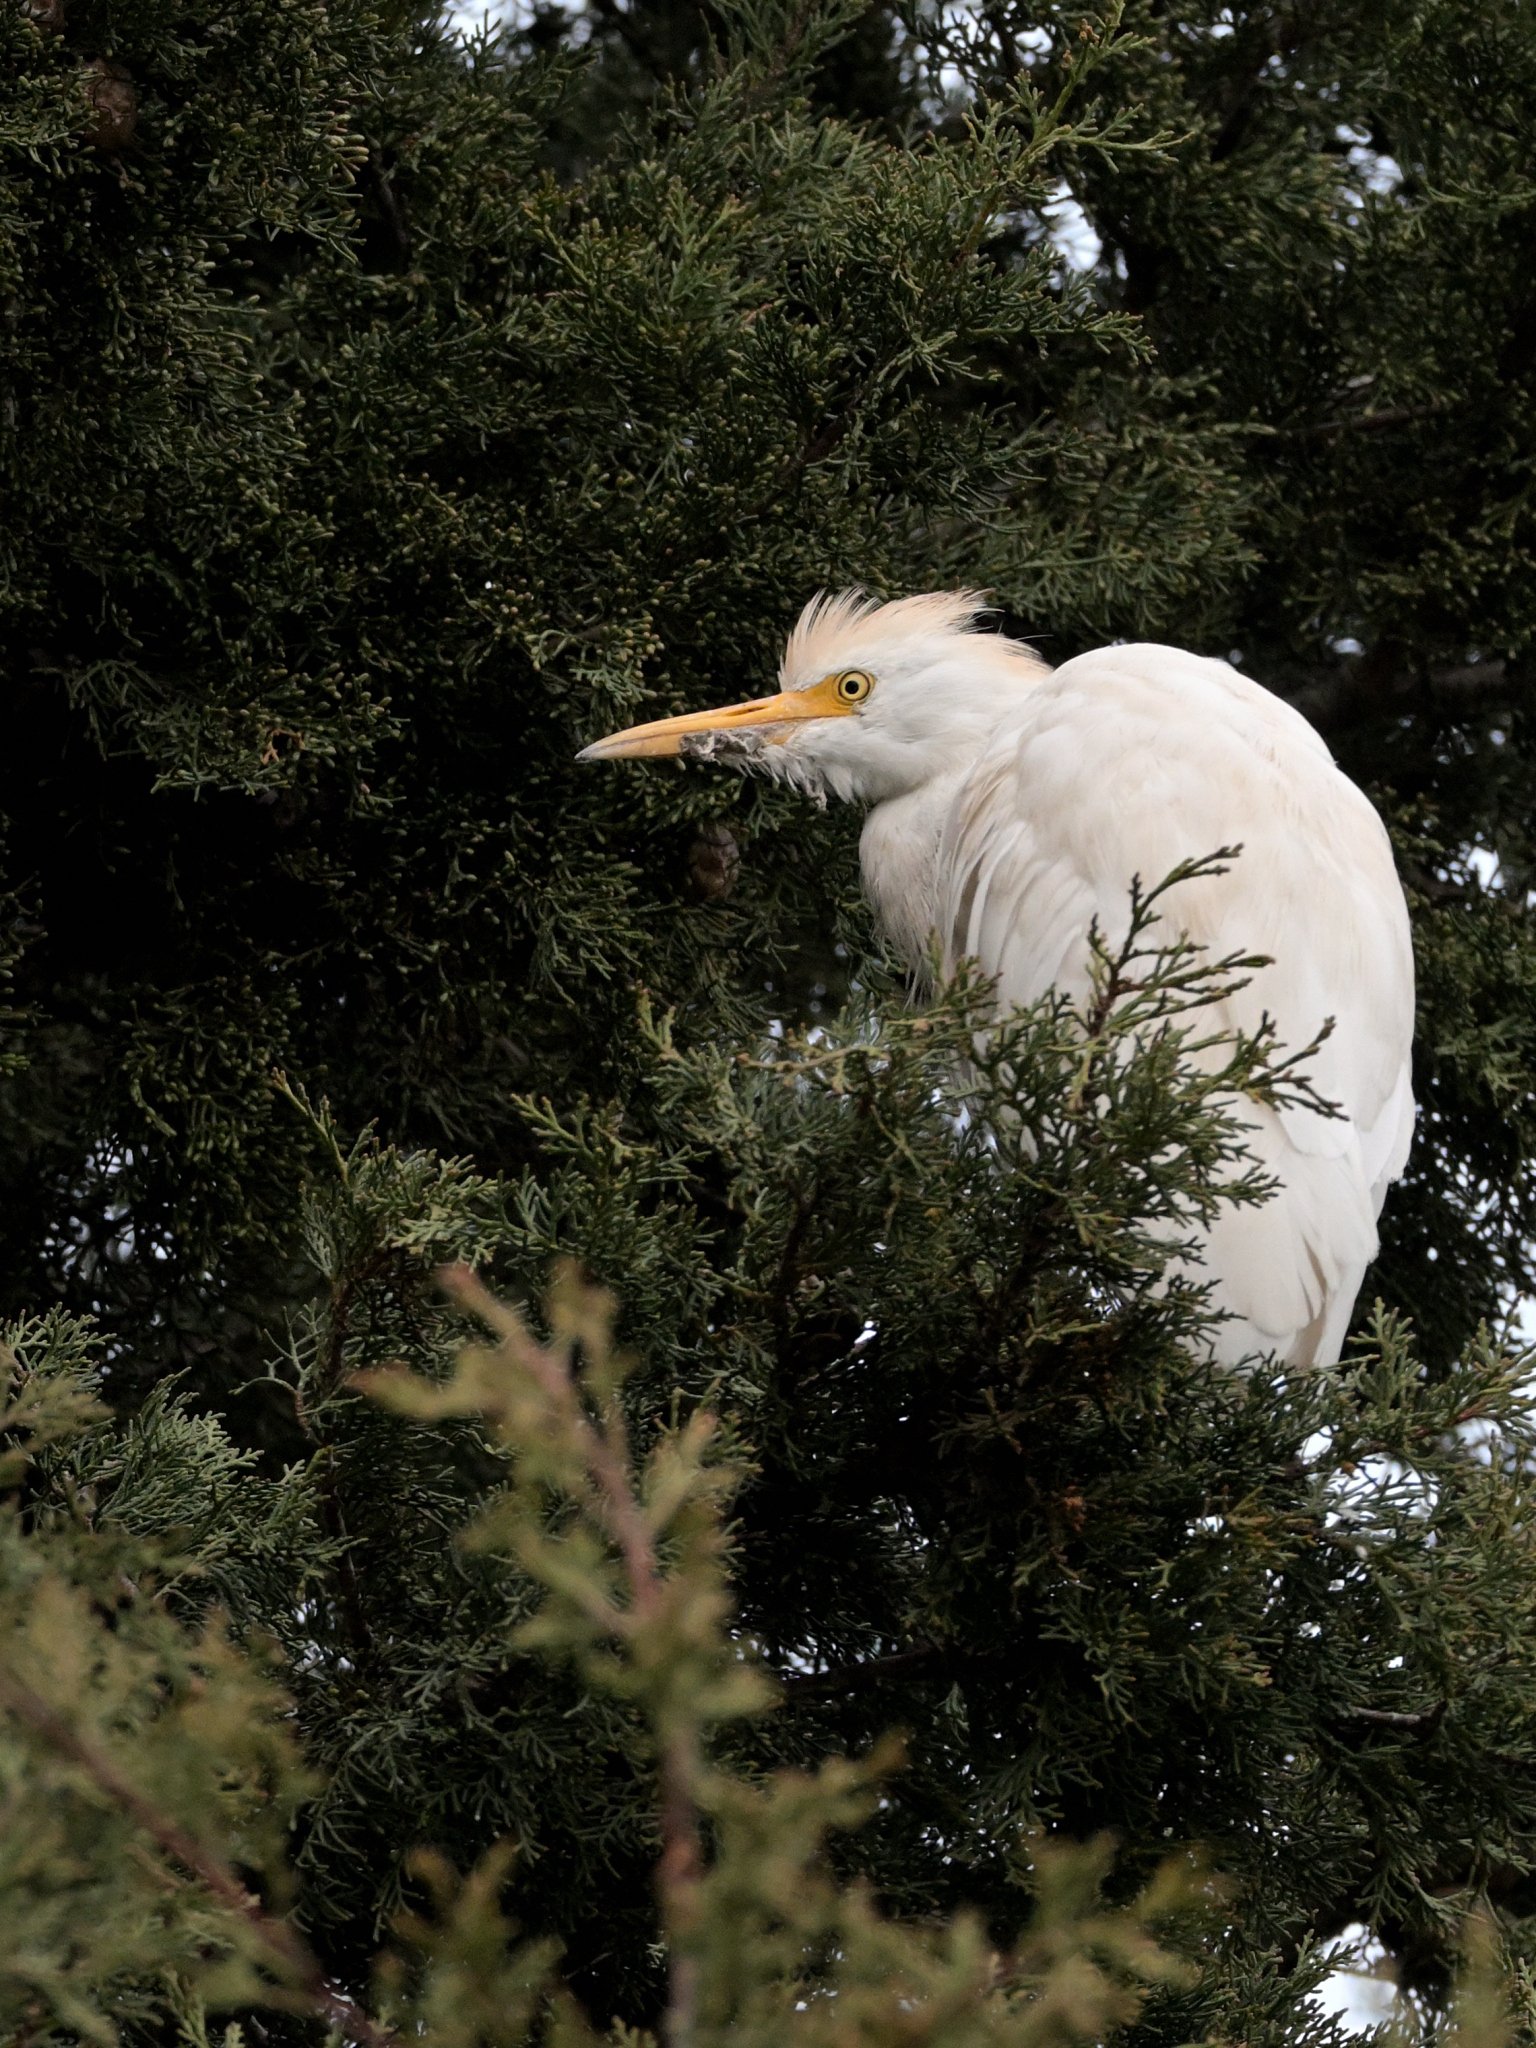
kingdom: Animalia
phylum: Chordata
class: Aves
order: Pelecaniformes
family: Ardeidae
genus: Bubulcus
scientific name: Bubulcus ibis
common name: Cattle egret
